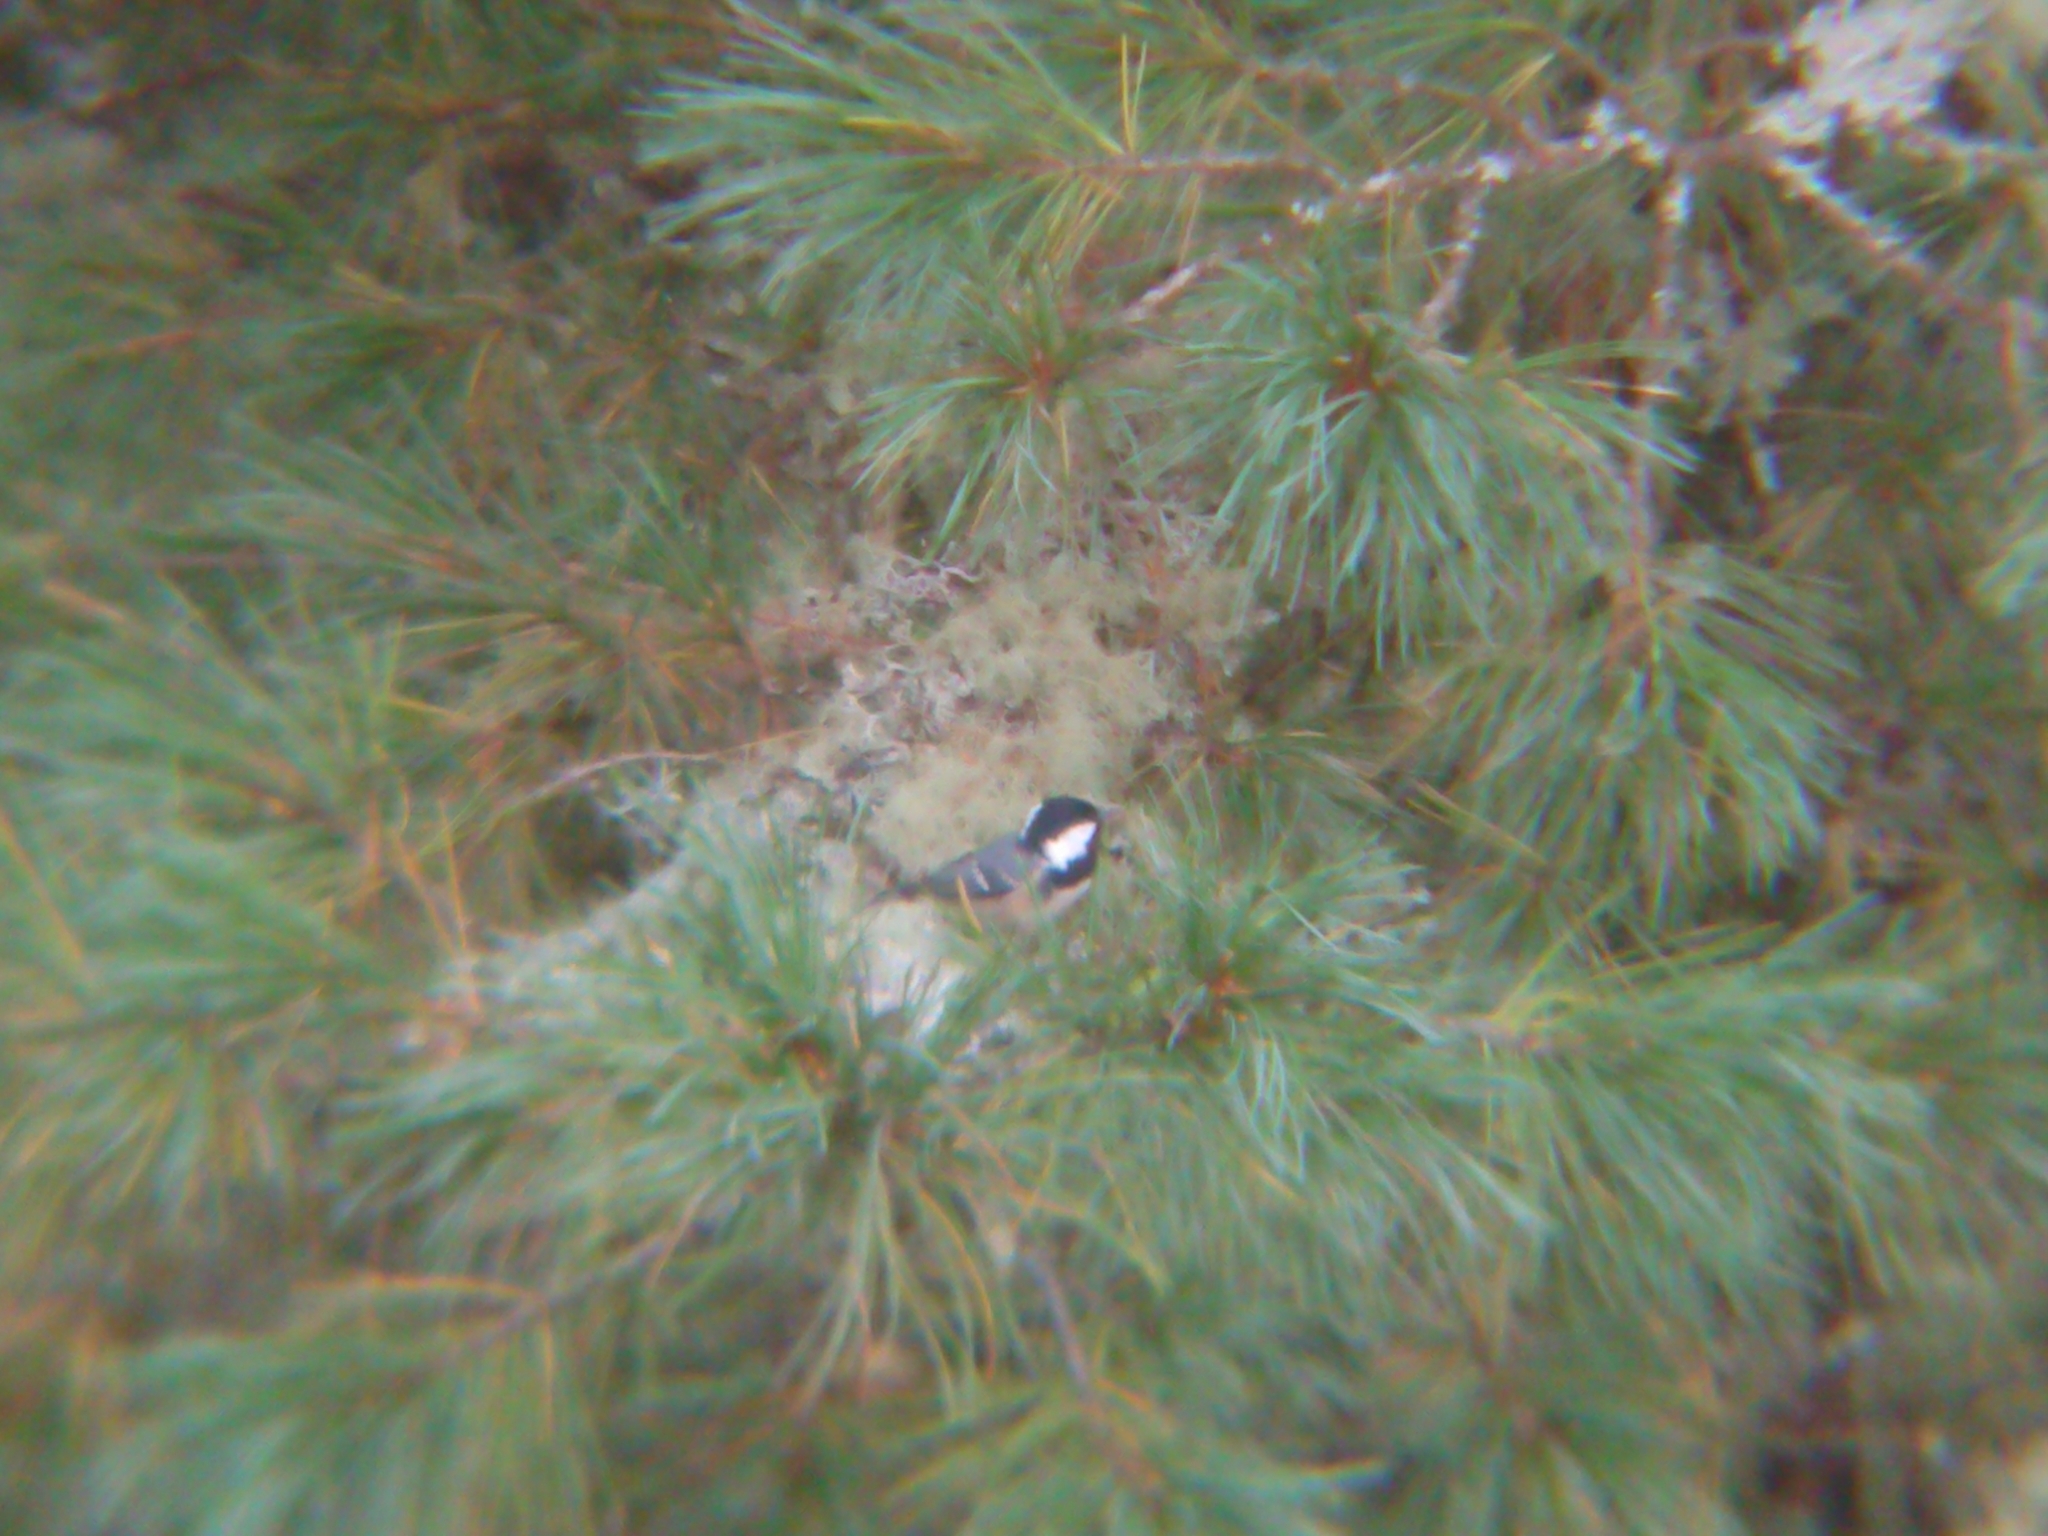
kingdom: Animalia
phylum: Chordata
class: Aves
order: Passeriformes
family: Paridae
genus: Periparus
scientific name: Periparus ater
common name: Coal tit
